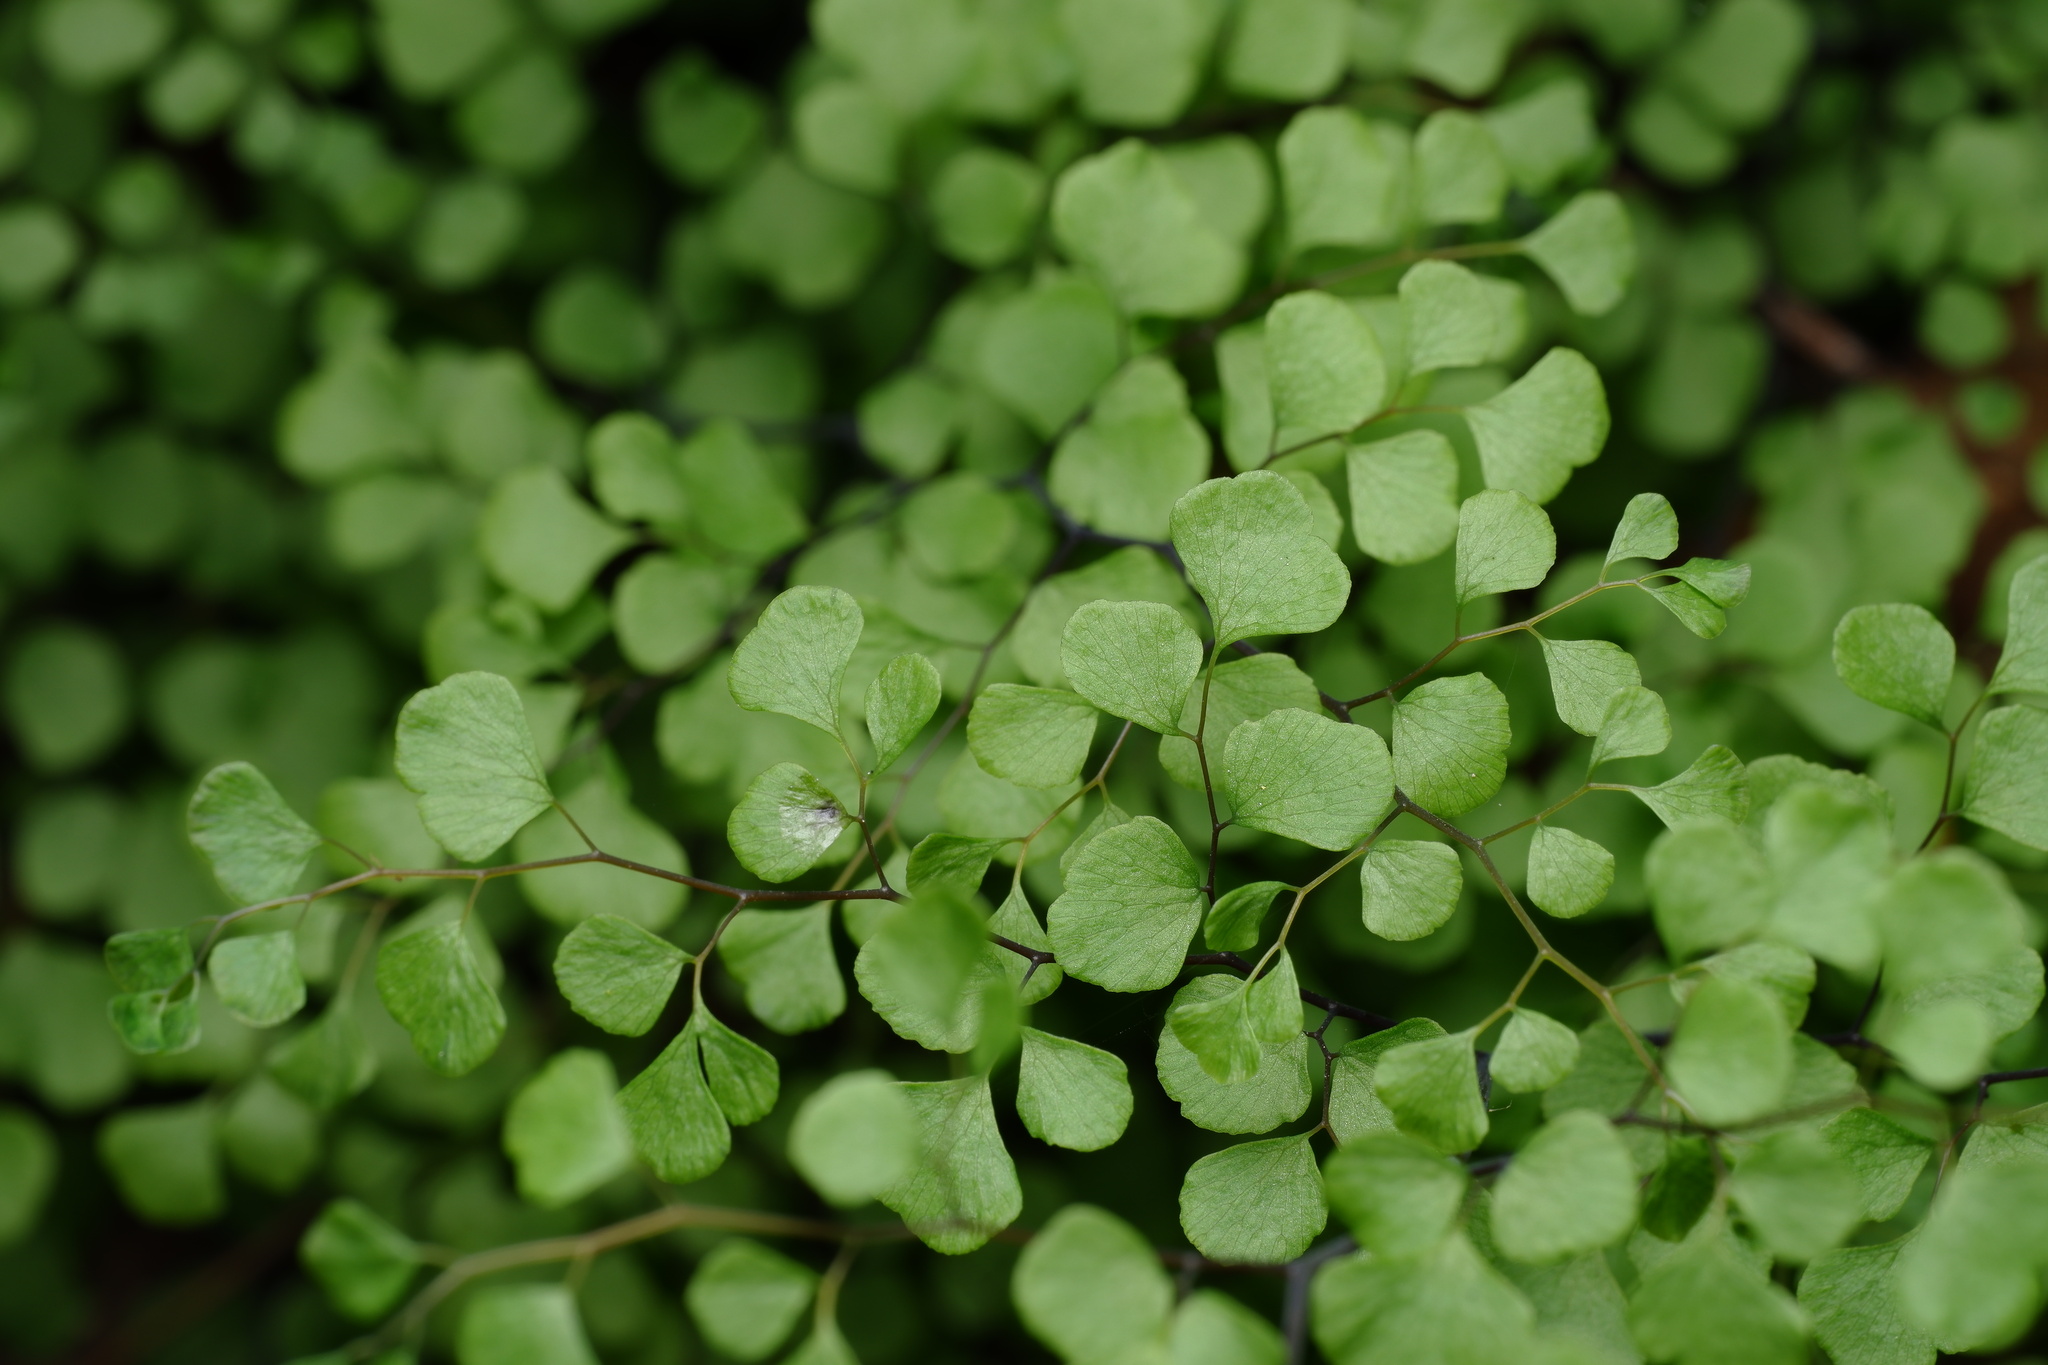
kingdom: Plantae
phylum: Tracheophyta
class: Polypodiopsida
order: Polypodiales
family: Pteridaceae
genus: Adiantum
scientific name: Adiantum aethiopicum
